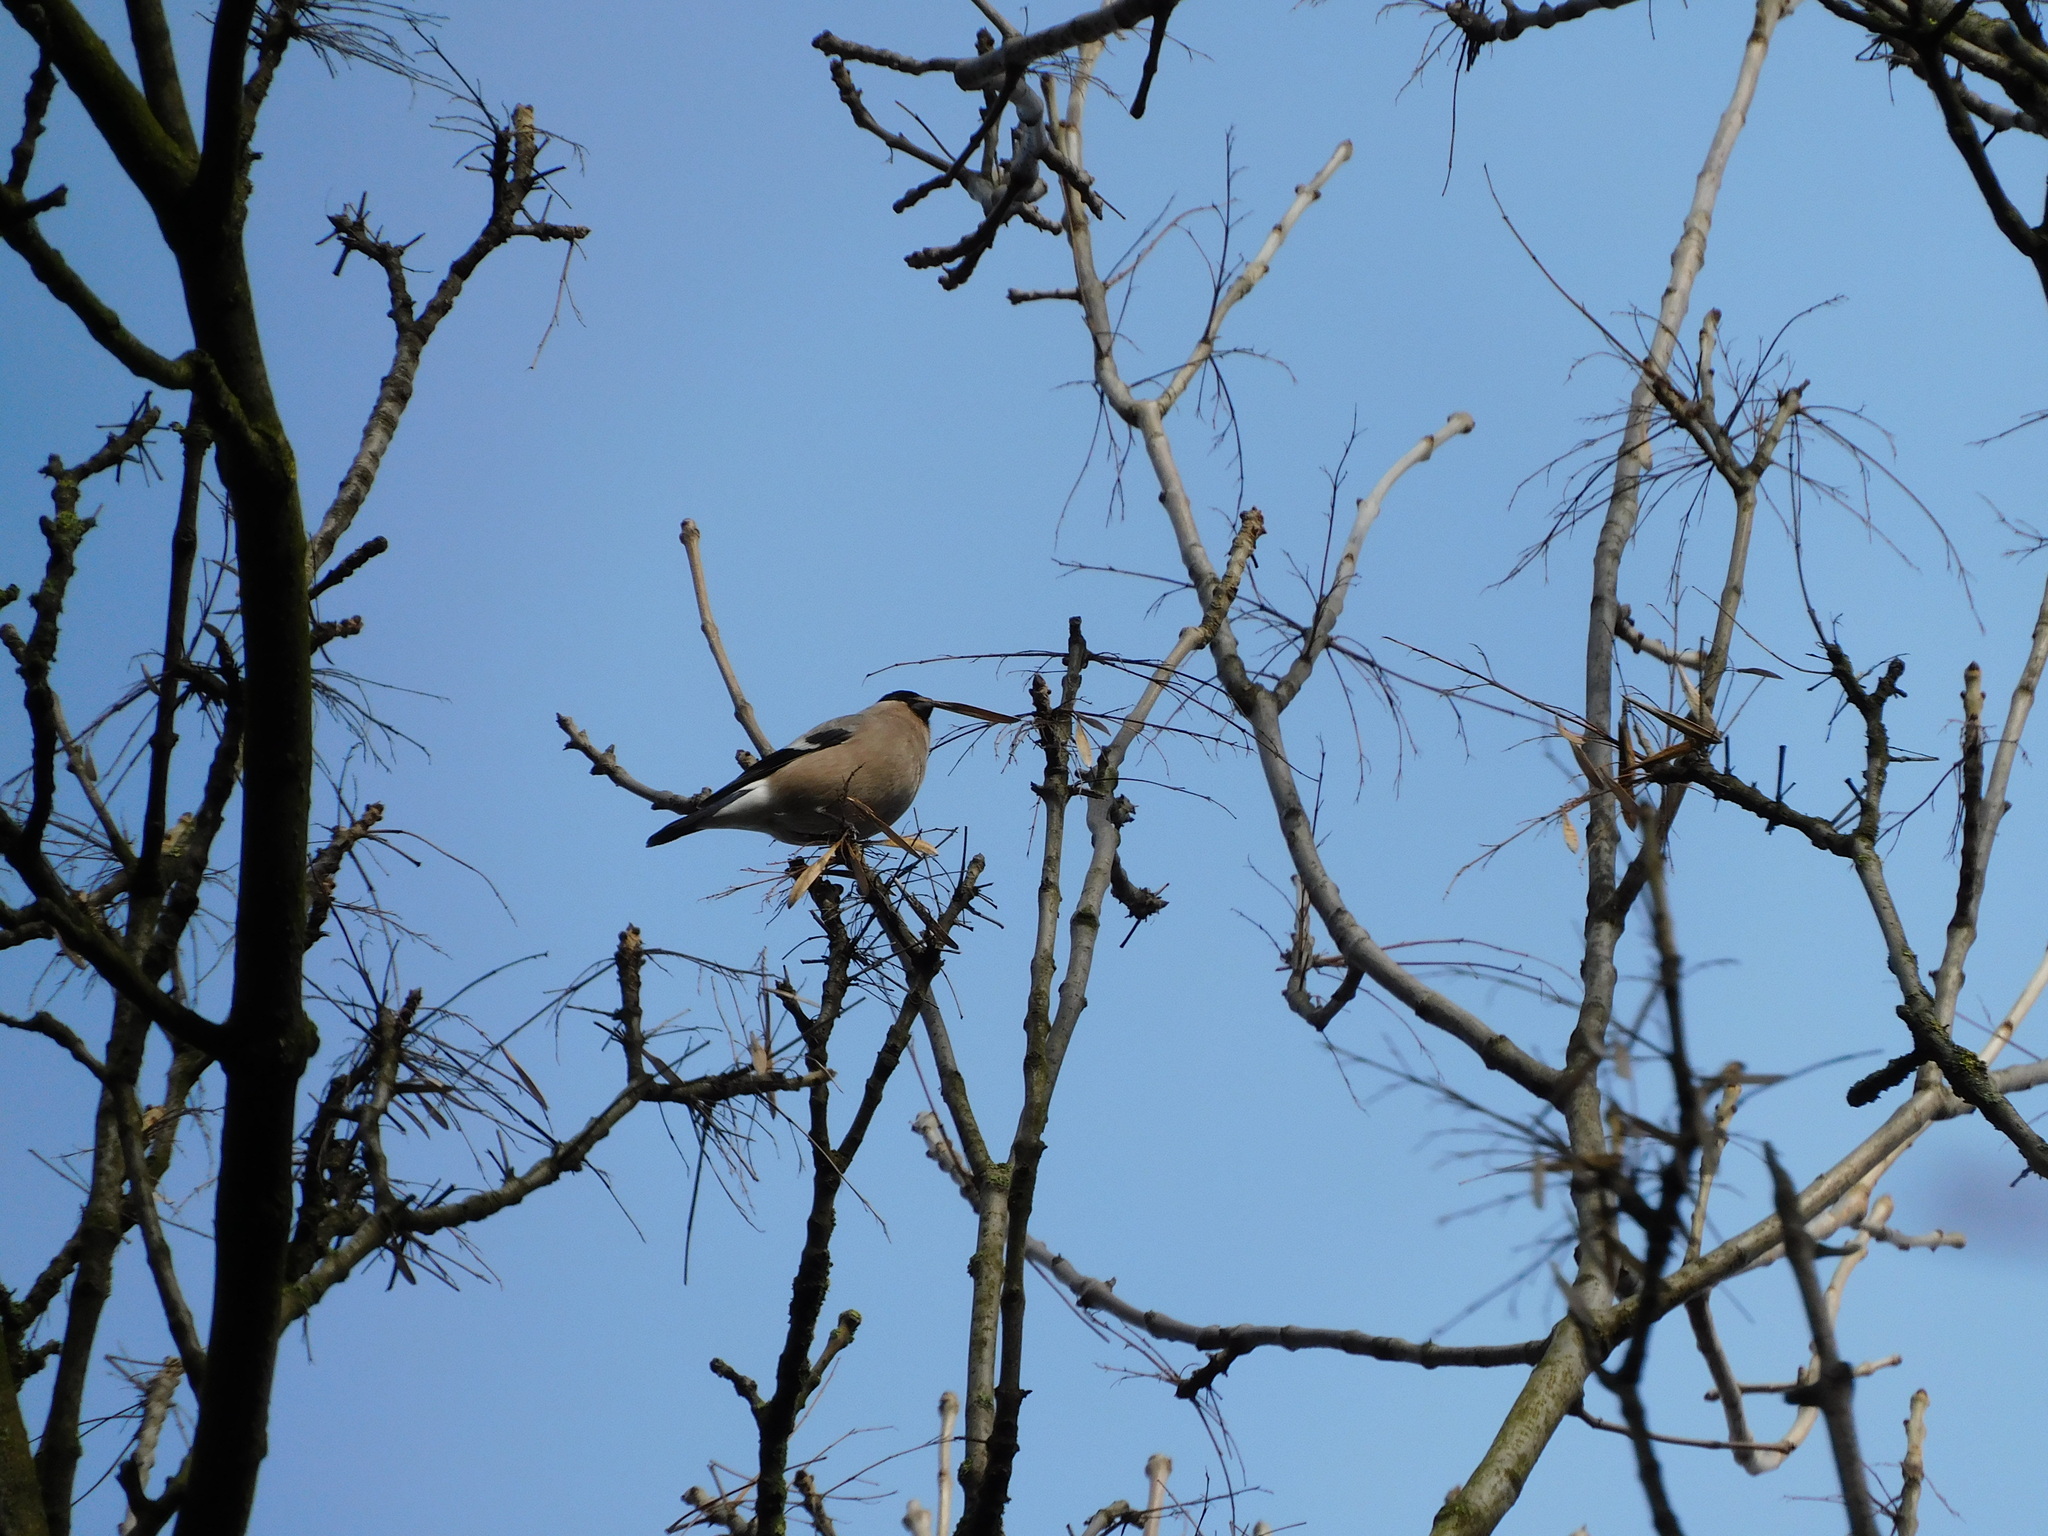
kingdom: Animalia
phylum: Chordata
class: Aves
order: Passeriformes
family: Fringillidae
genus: Pyrrhula
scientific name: Pyrrhula pyrrhula
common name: Eurasian bullfinch
